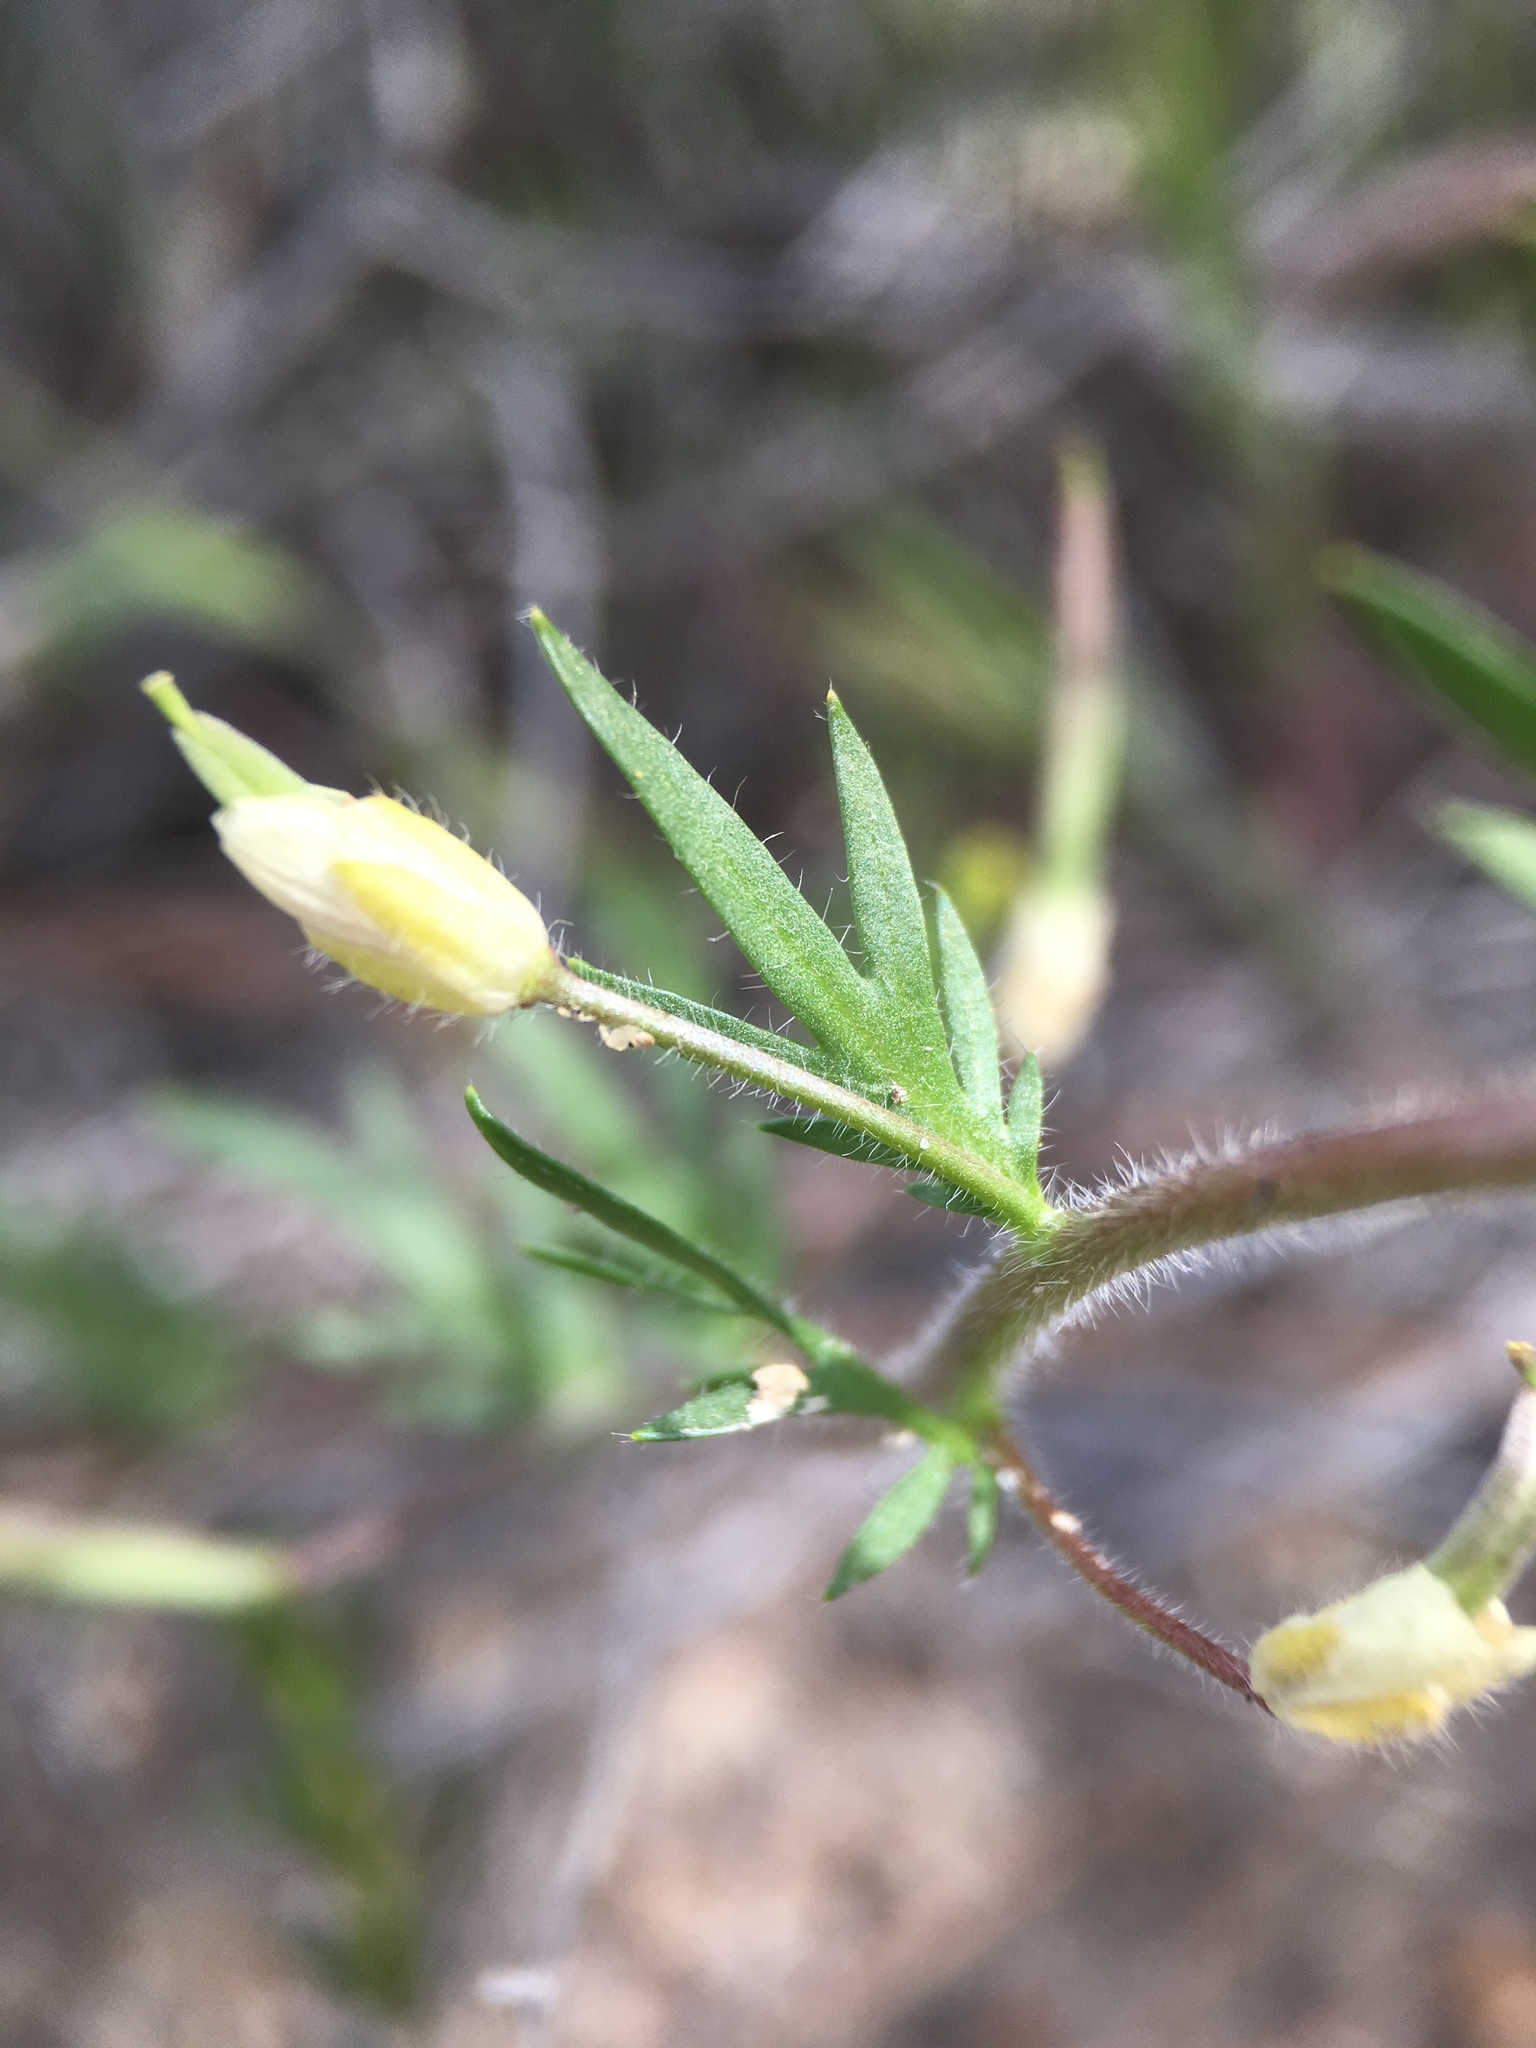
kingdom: Plantae
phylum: Tracheophyta
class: Magnoliopsida
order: Brassicales
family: Brassicaceae
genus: Tropidocarpum
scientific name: Tropidocarpum gracile
